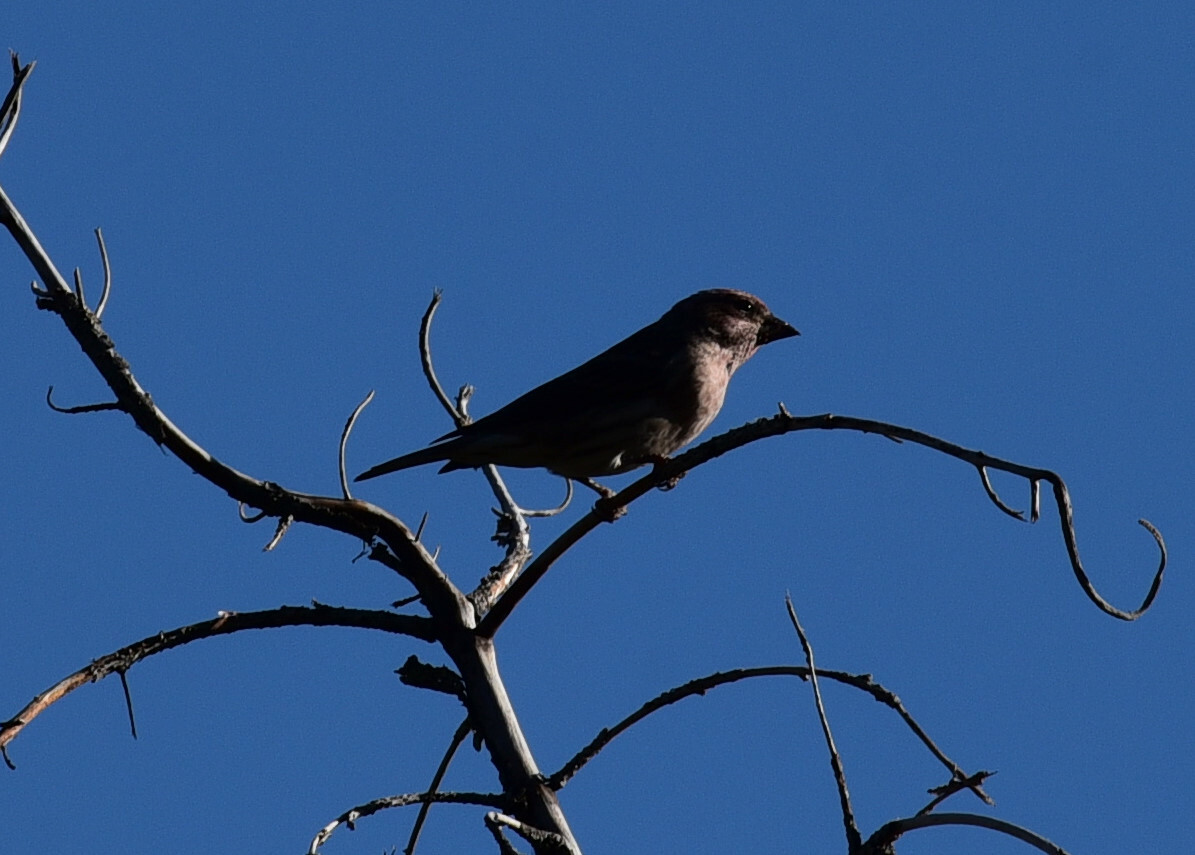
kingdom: Animalia
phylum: Chordata
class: Aves
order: Passeriformes
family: Fringillidae
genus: Haemorhous
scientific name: Haemorhous cassinii
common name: Cassin's finch
